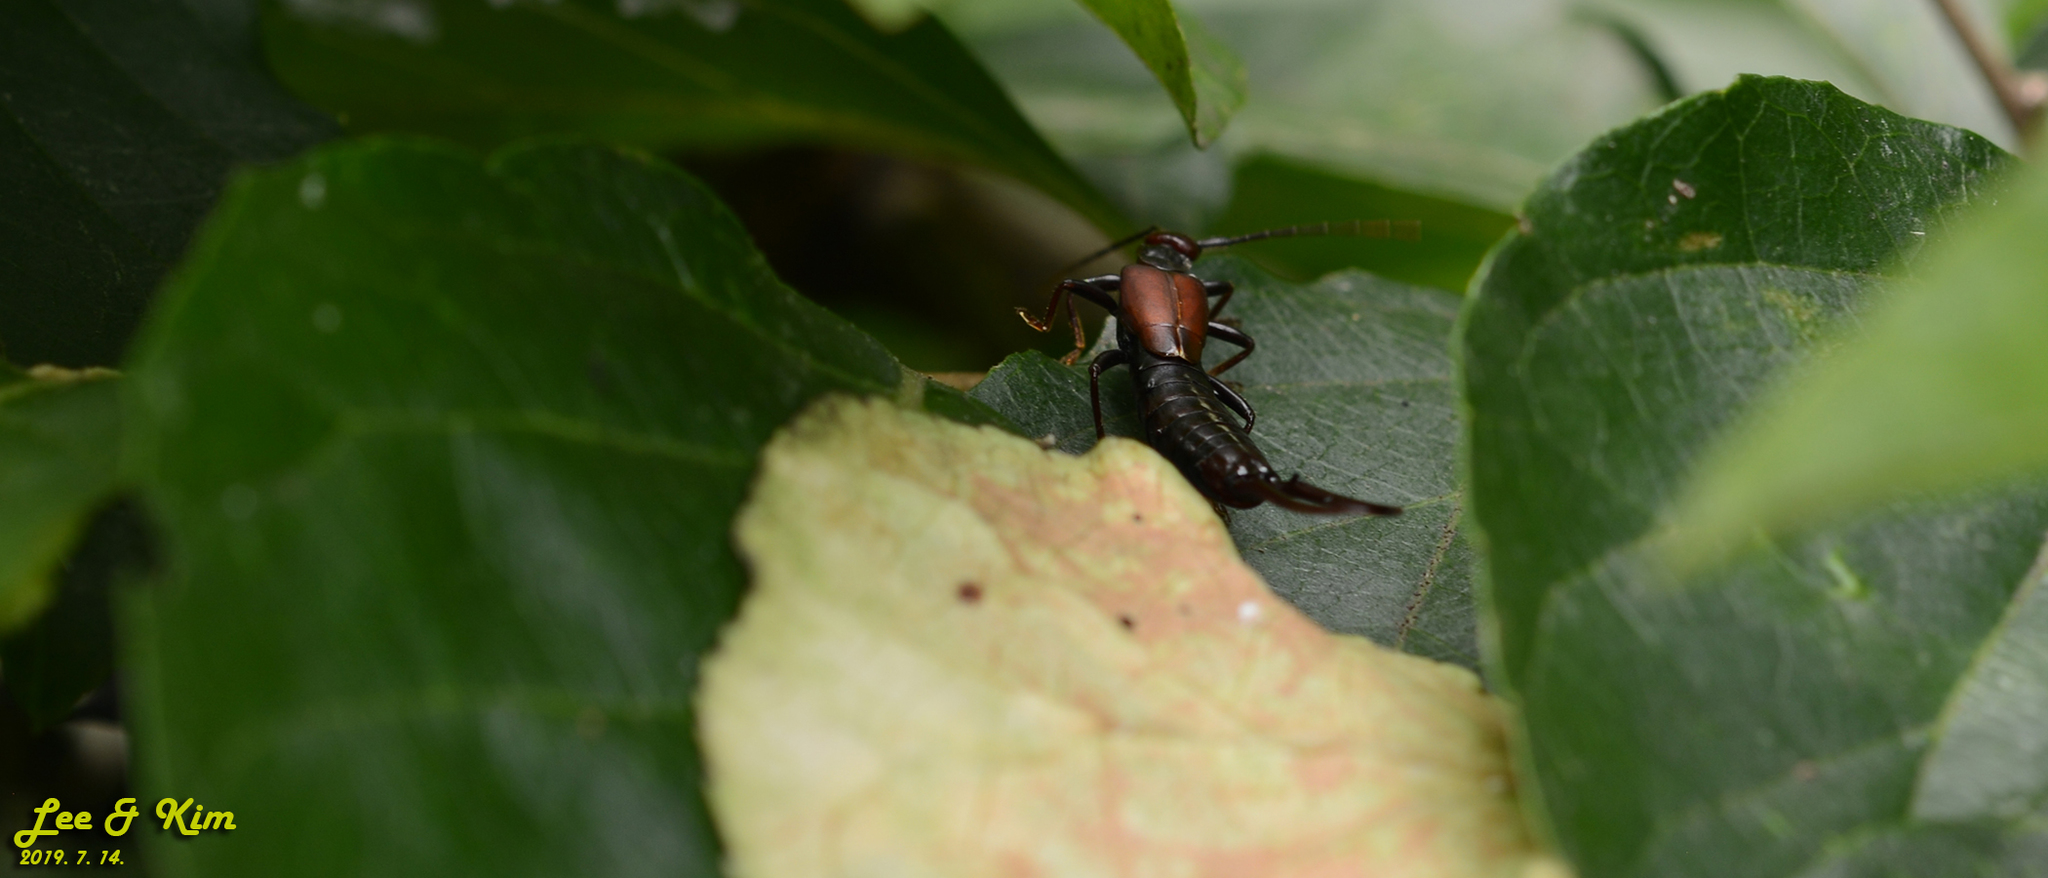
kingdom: Animalia
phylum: Arthropoda
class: Insecta
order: Dermaptera
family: Forficulidae
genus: Timomenus
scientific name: Timomenus komarovi
